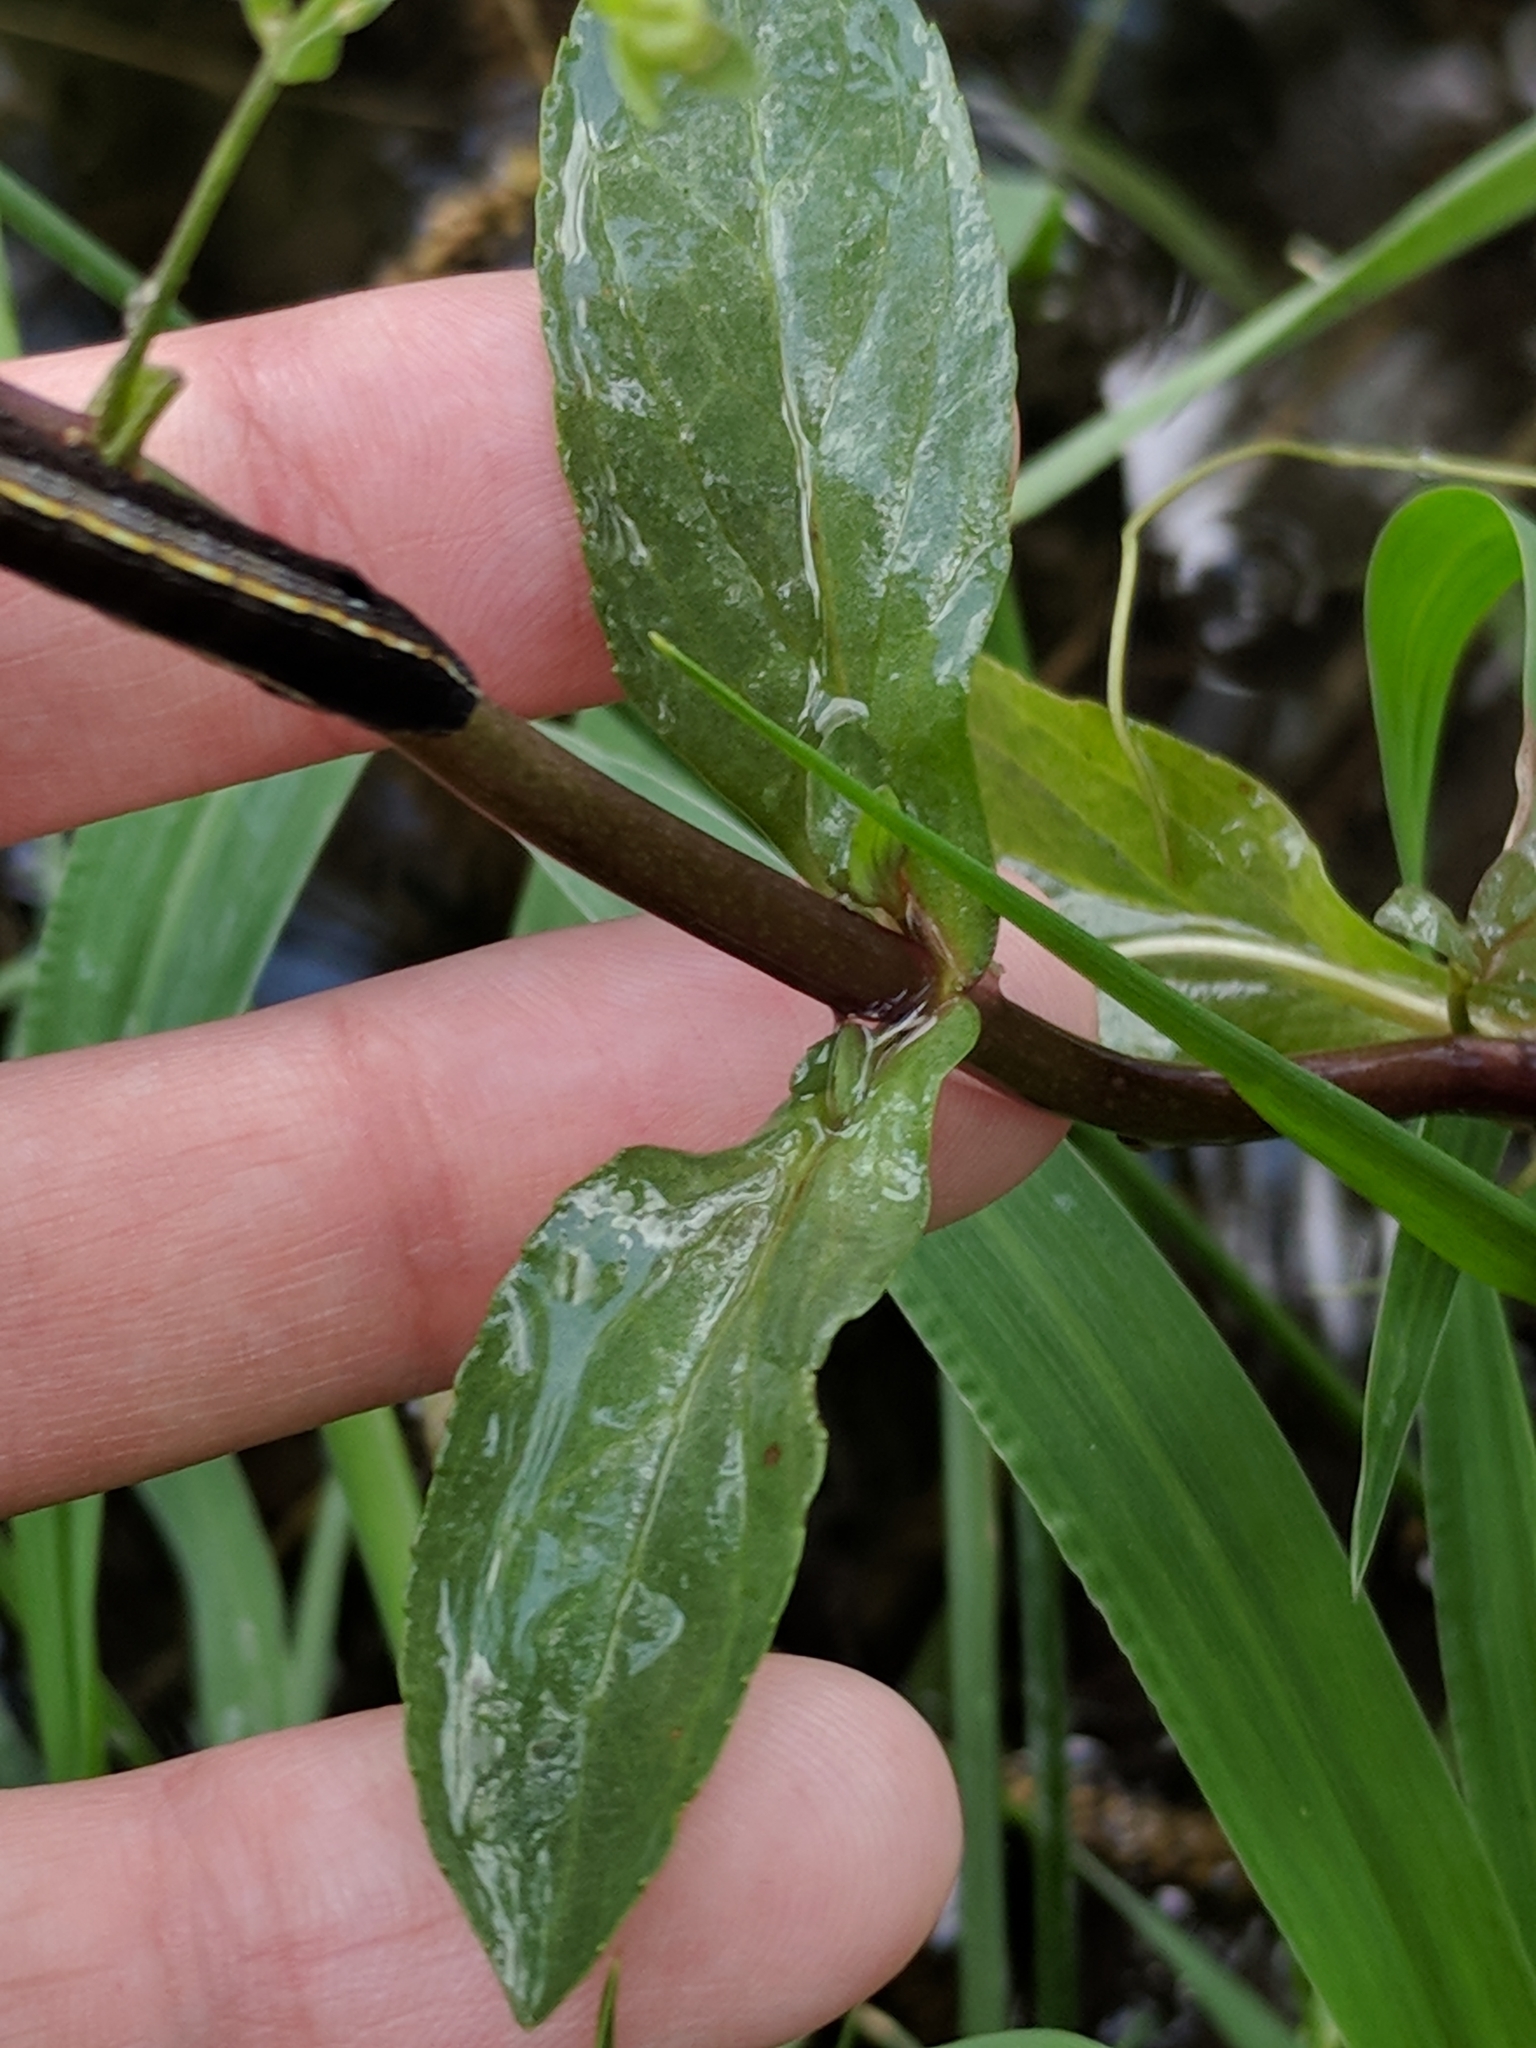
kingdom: Plantae
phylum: Tracheophyta
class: Magnoliopsida
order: Lamiales
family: Plantaginaceae
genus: Veronica
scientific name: Veronica anagallis-aquatica
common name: Water speedwell
